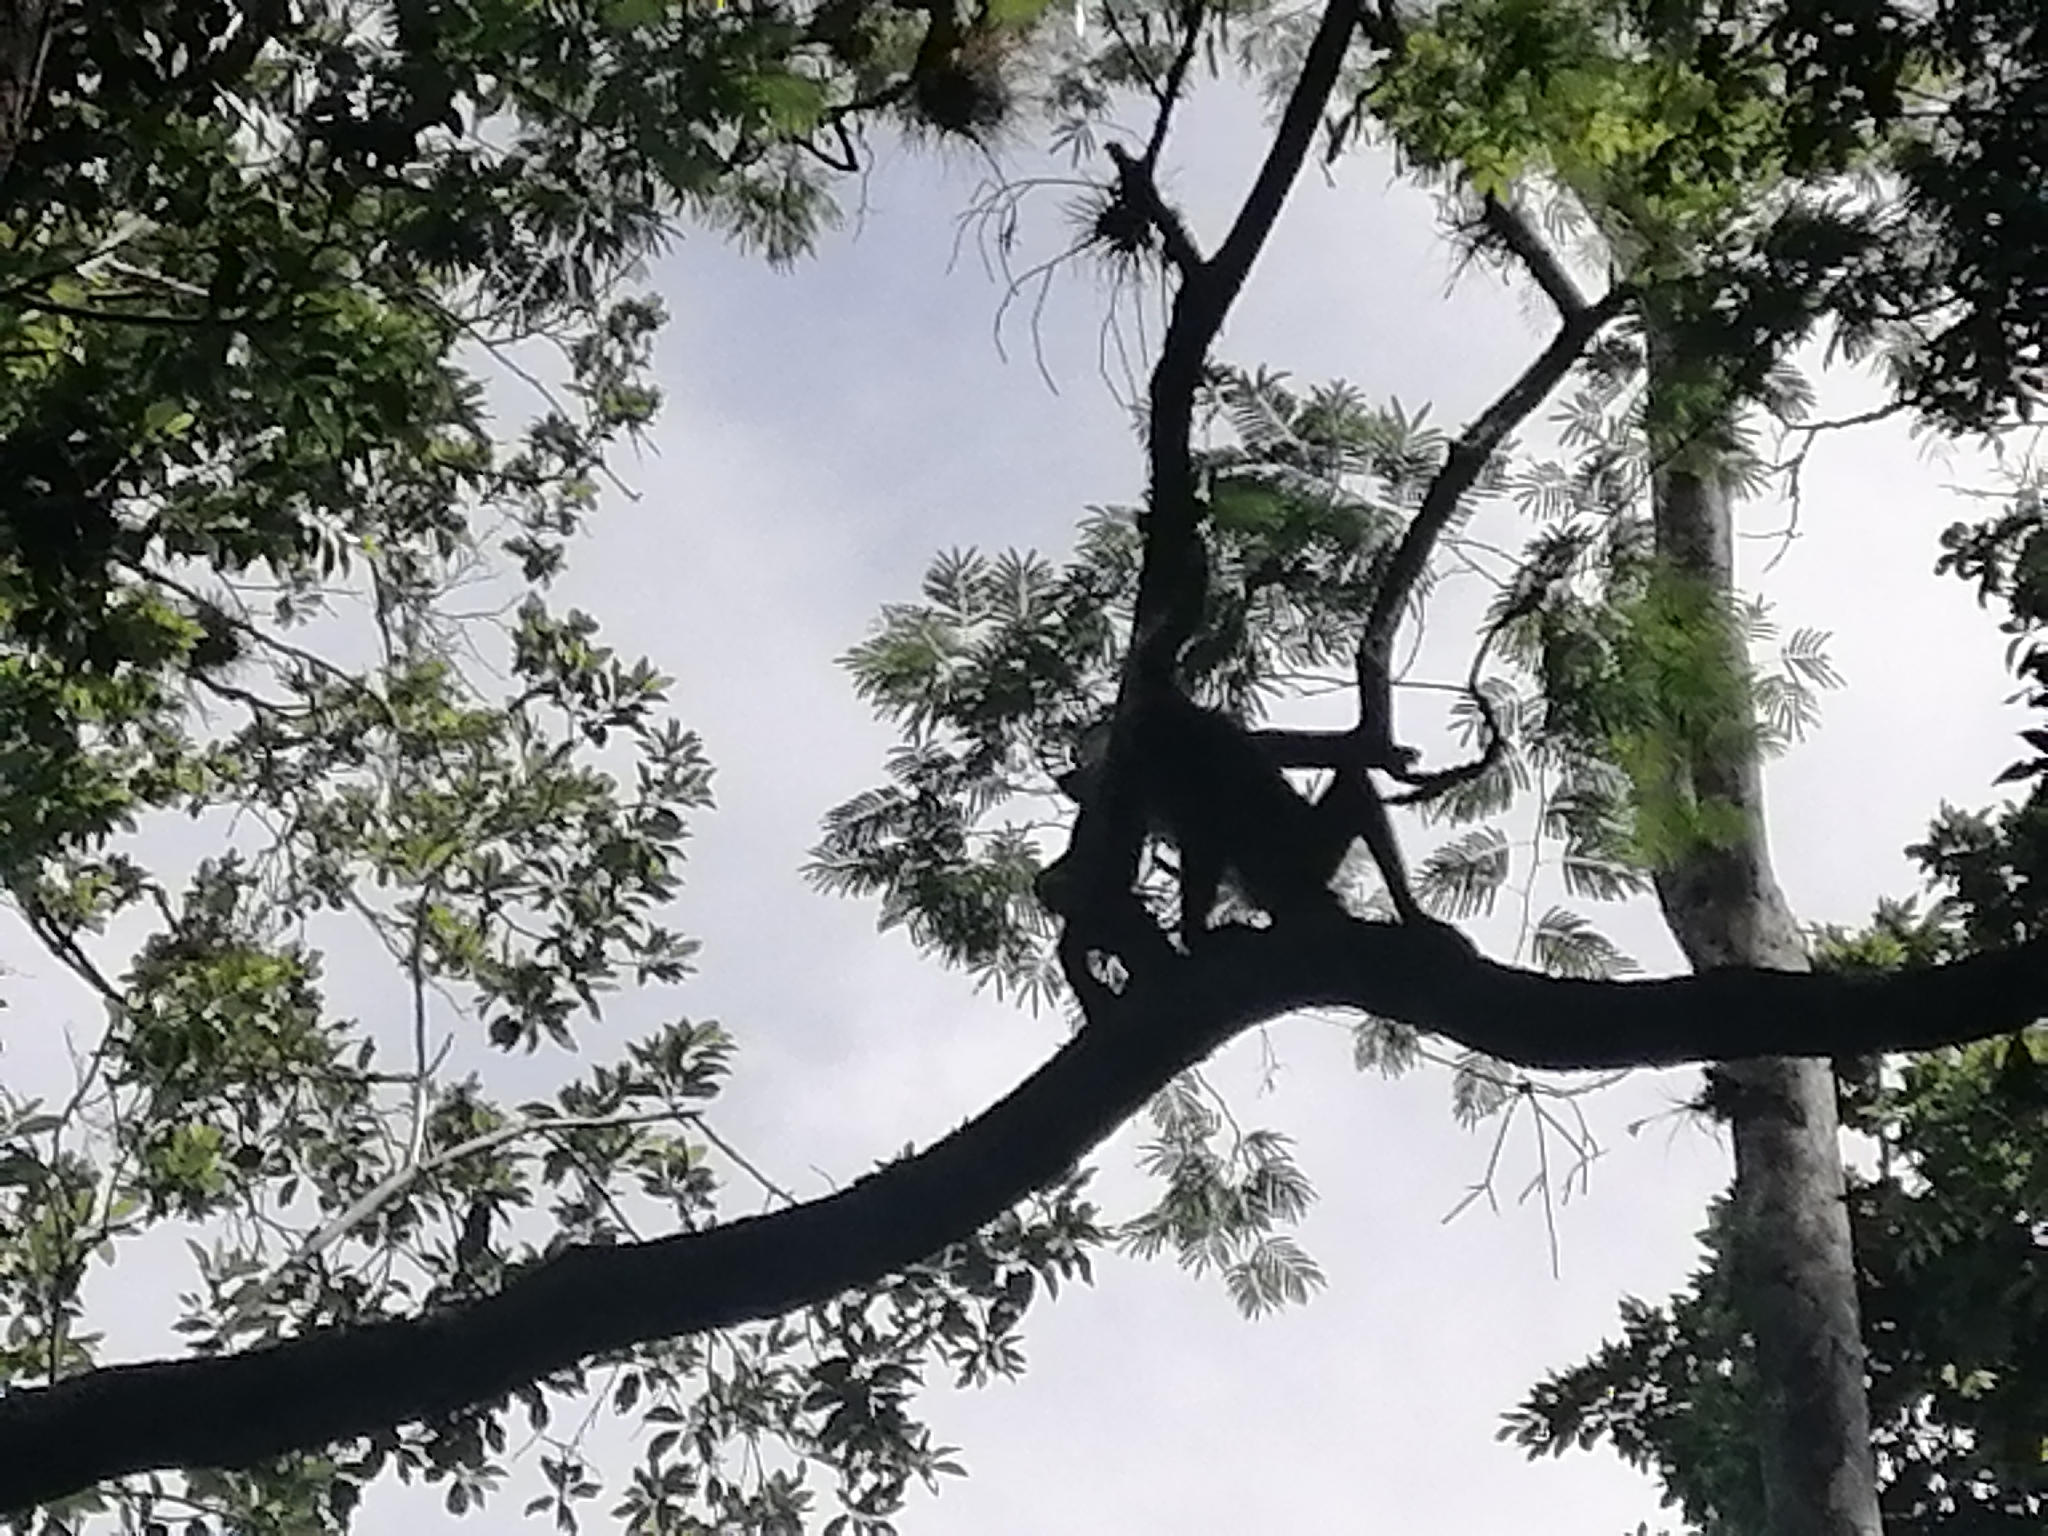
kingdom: Animalia
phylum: Chordata
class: Mammalia
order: Primates
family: Atelidae
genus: Ateles
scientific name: Ateles geoffroyi
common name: Black-handed spider monkey
